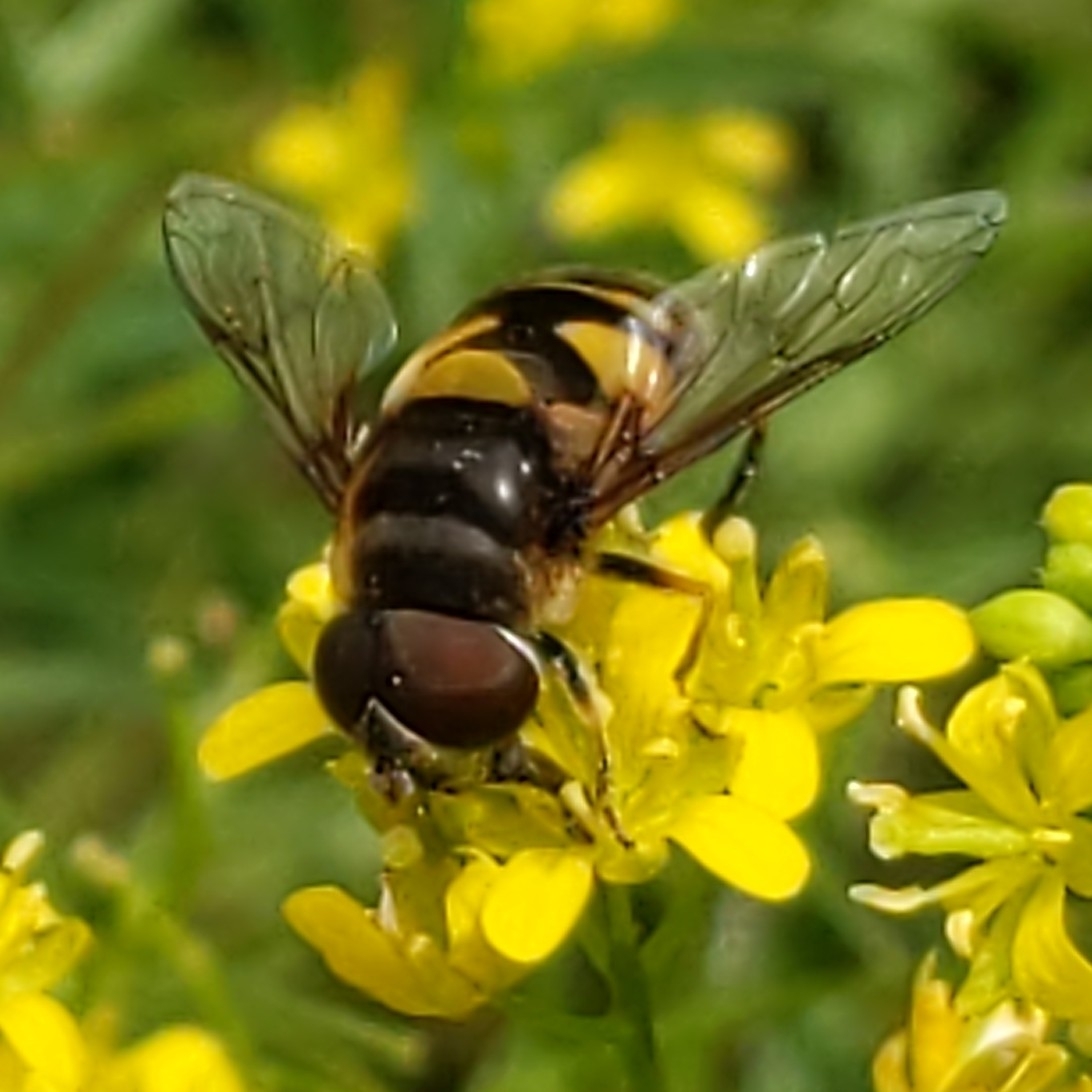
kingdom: Animalia
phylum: Arthropoda
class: Insecta
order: Diptera
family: Syrphidae
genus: Eristalis
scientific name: Eristalis transversa
